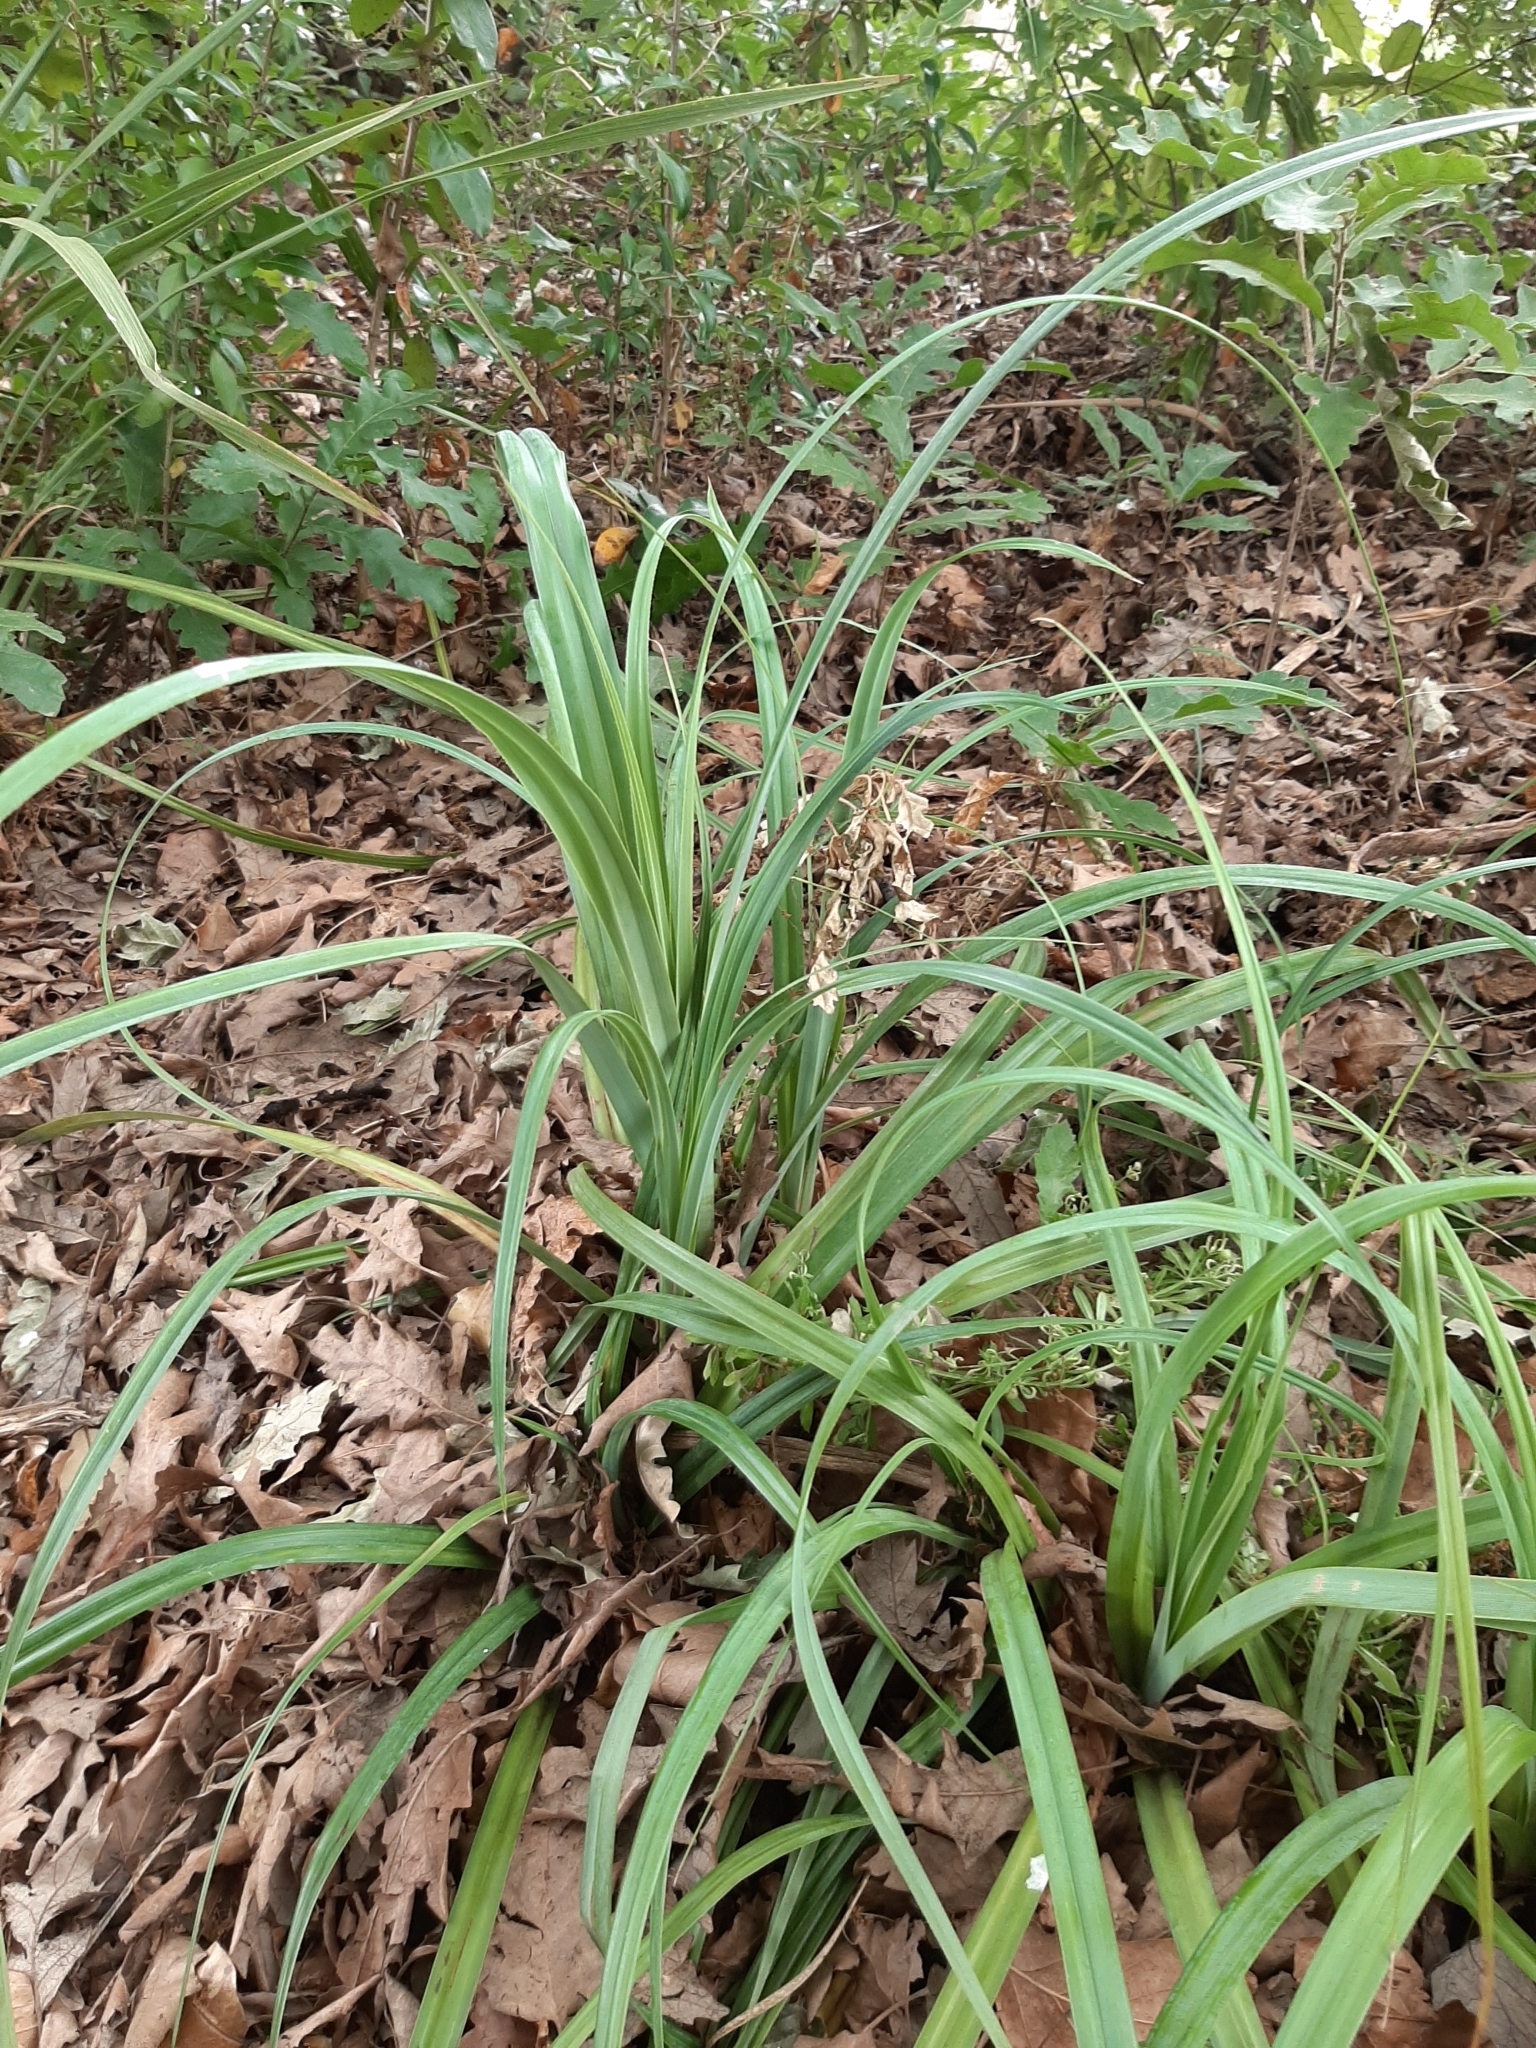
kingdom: Plantae
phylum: Tracheophyta
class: Liliopsida
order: Poales
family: Cyperaceae
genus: Carex
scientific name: Carex trifida
